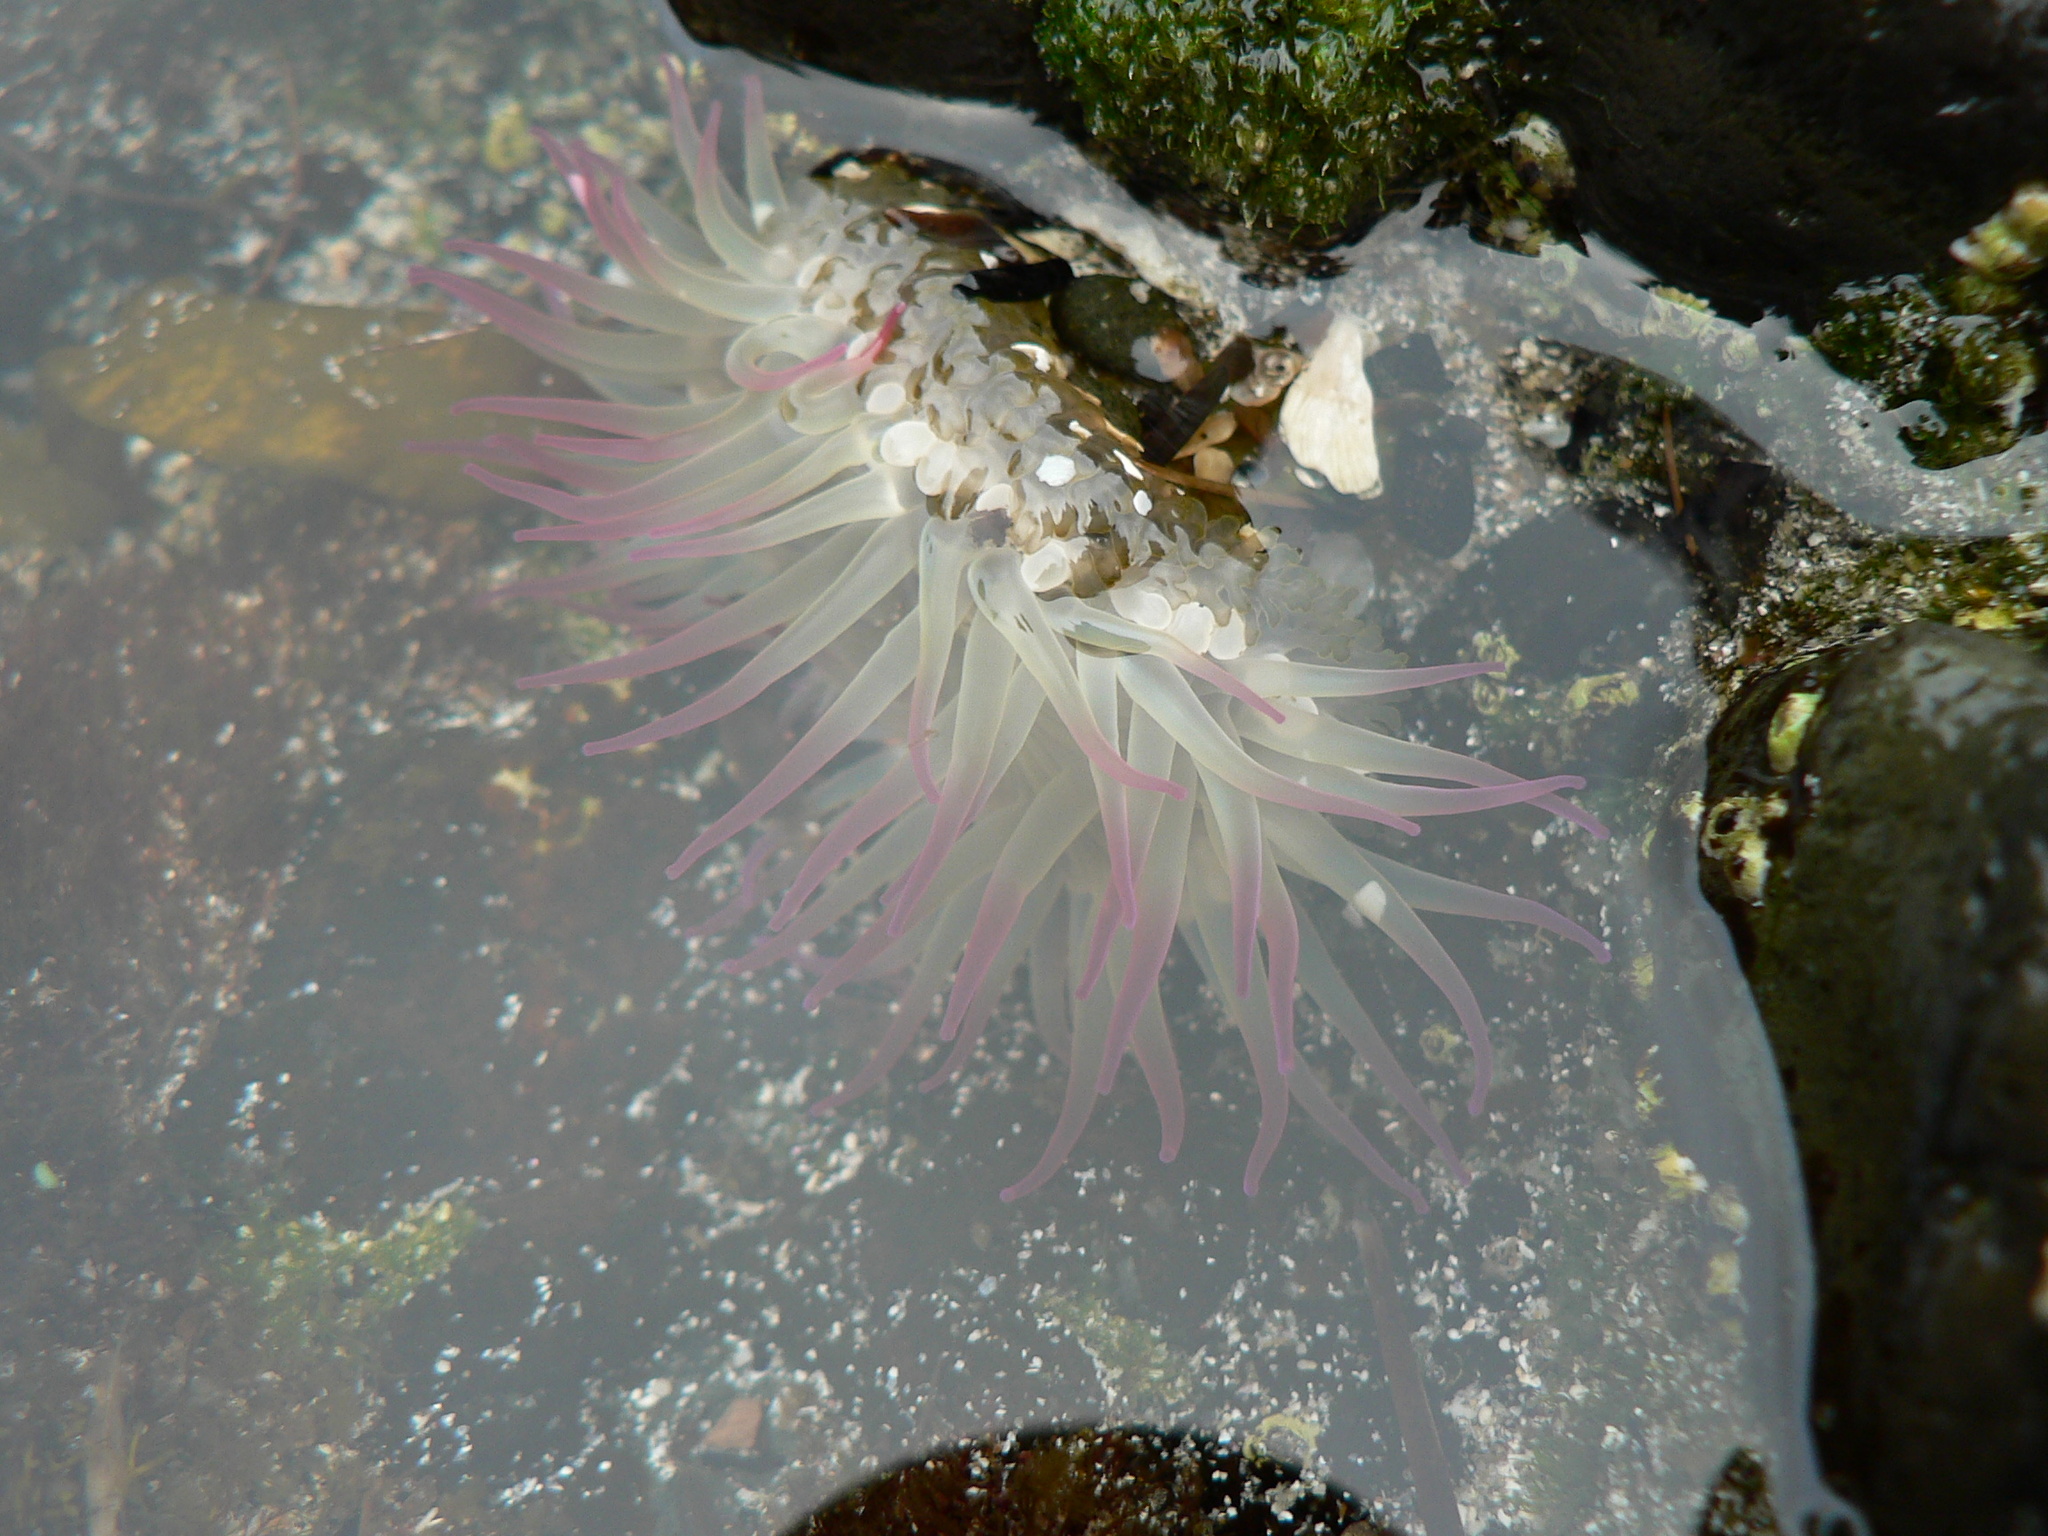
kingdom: Animalia
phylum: Cnidaria
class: Anthozoa
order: Actiniaria
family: Actiniidae
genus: Anthopleura
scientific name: Anthopleura elegantissima
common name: Clonal anemone
